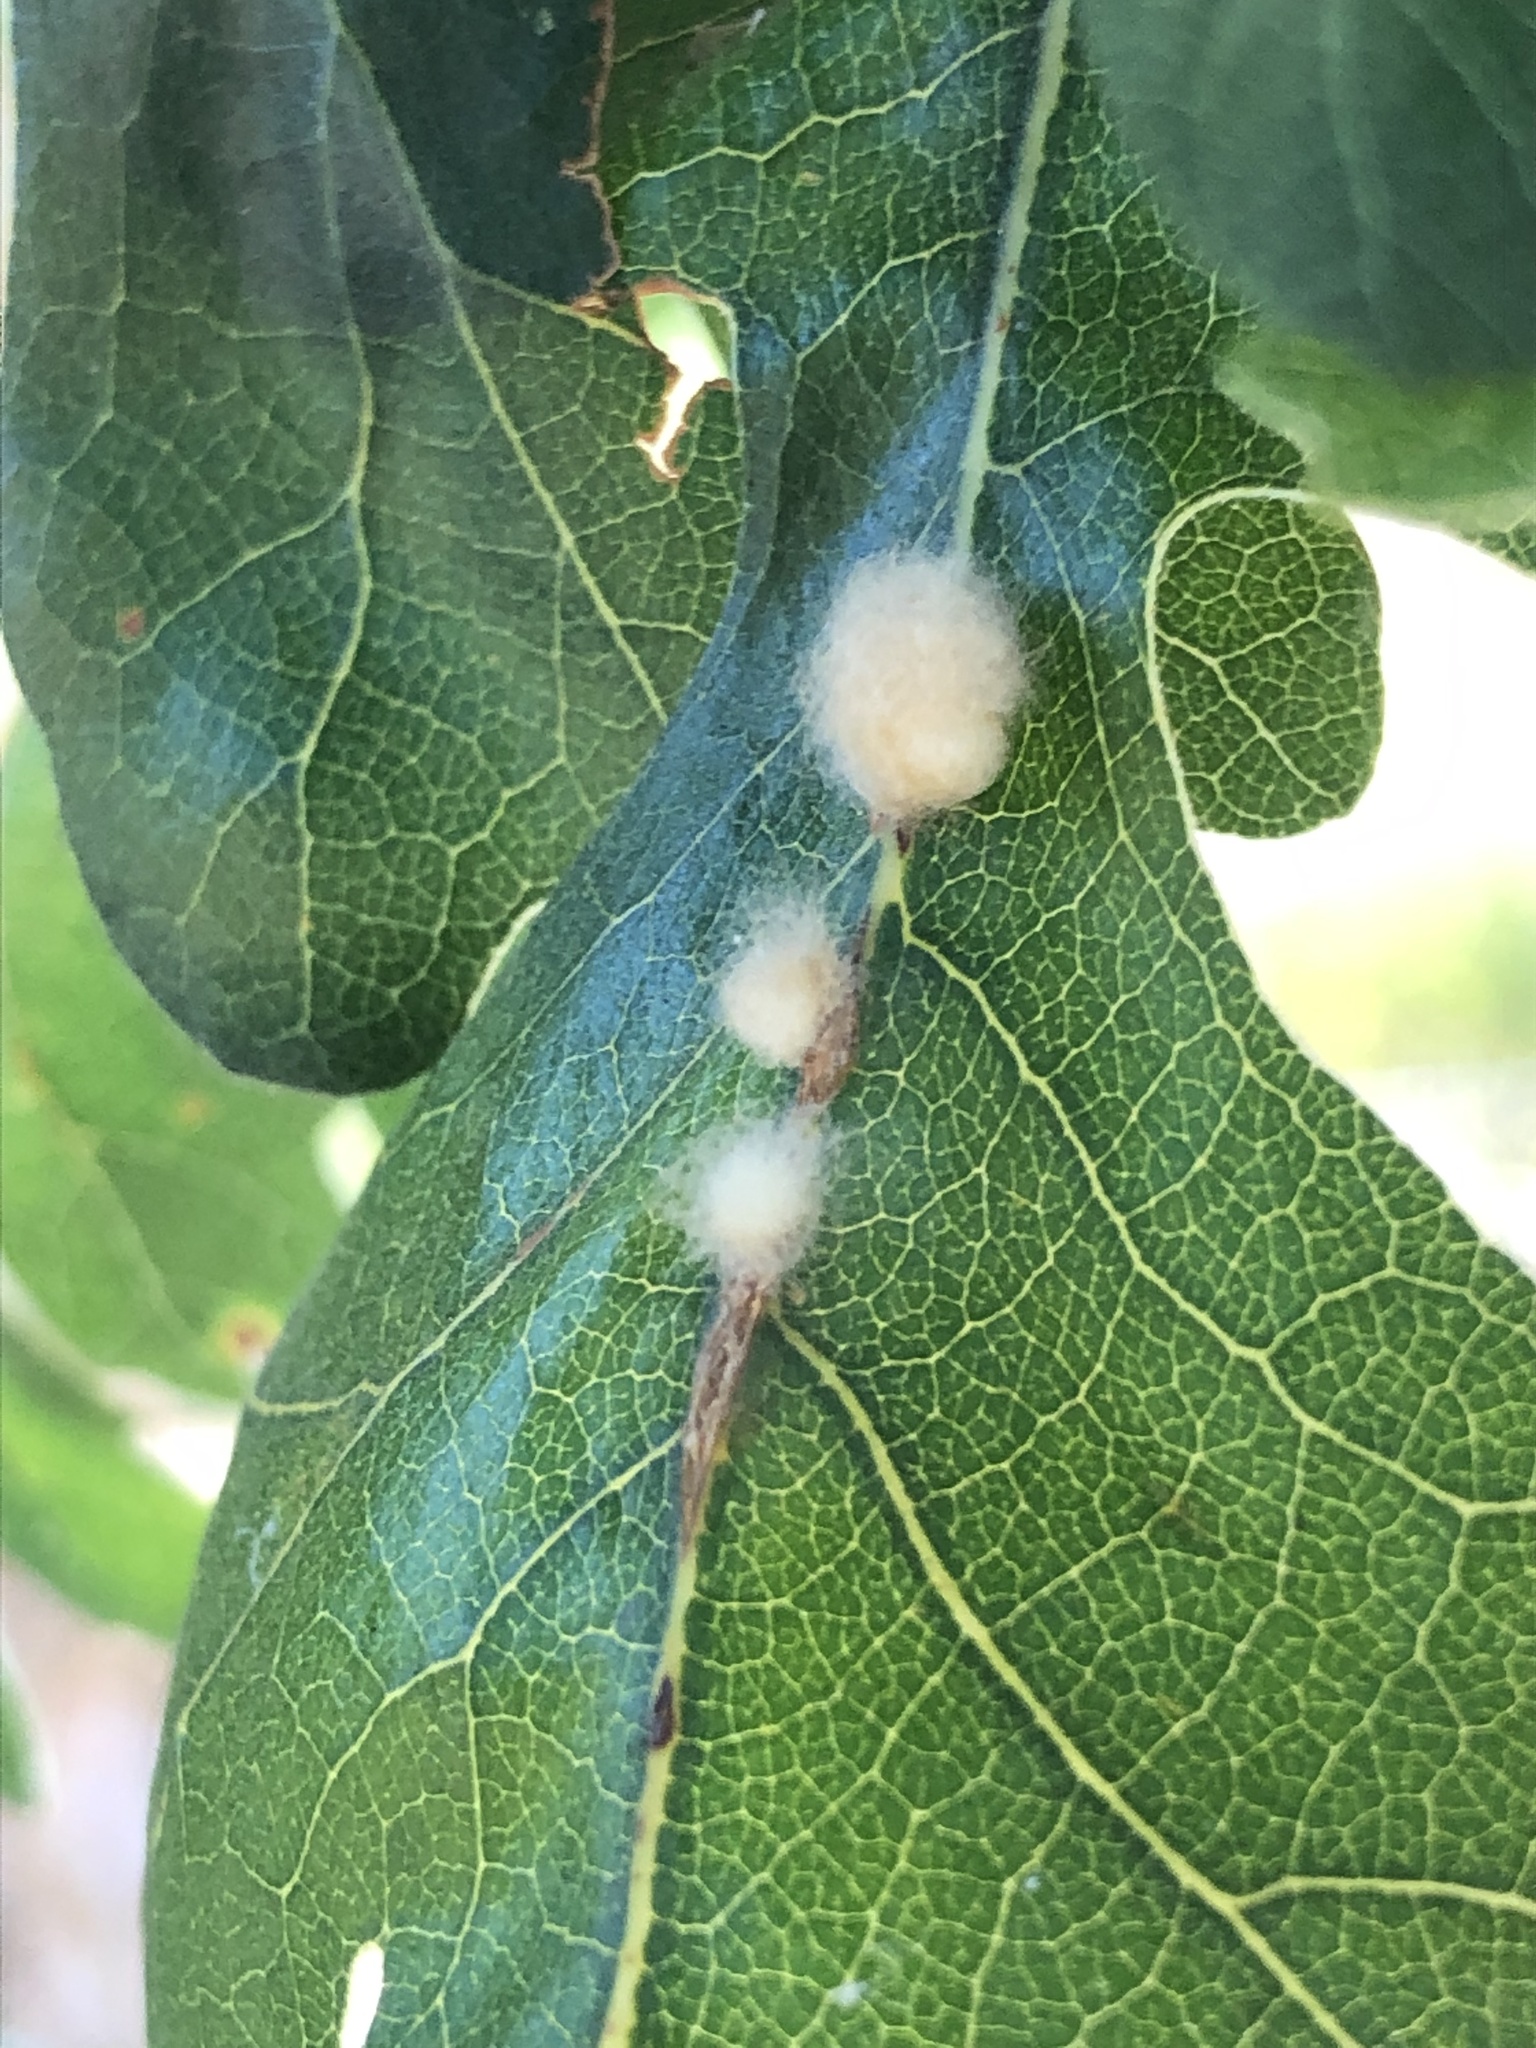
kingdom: Animalia
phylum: Arthropoda
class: Insecta
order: Hymenoptera
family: Cynipidae
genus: Andricus
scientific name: Andricus Druon fullawayi
